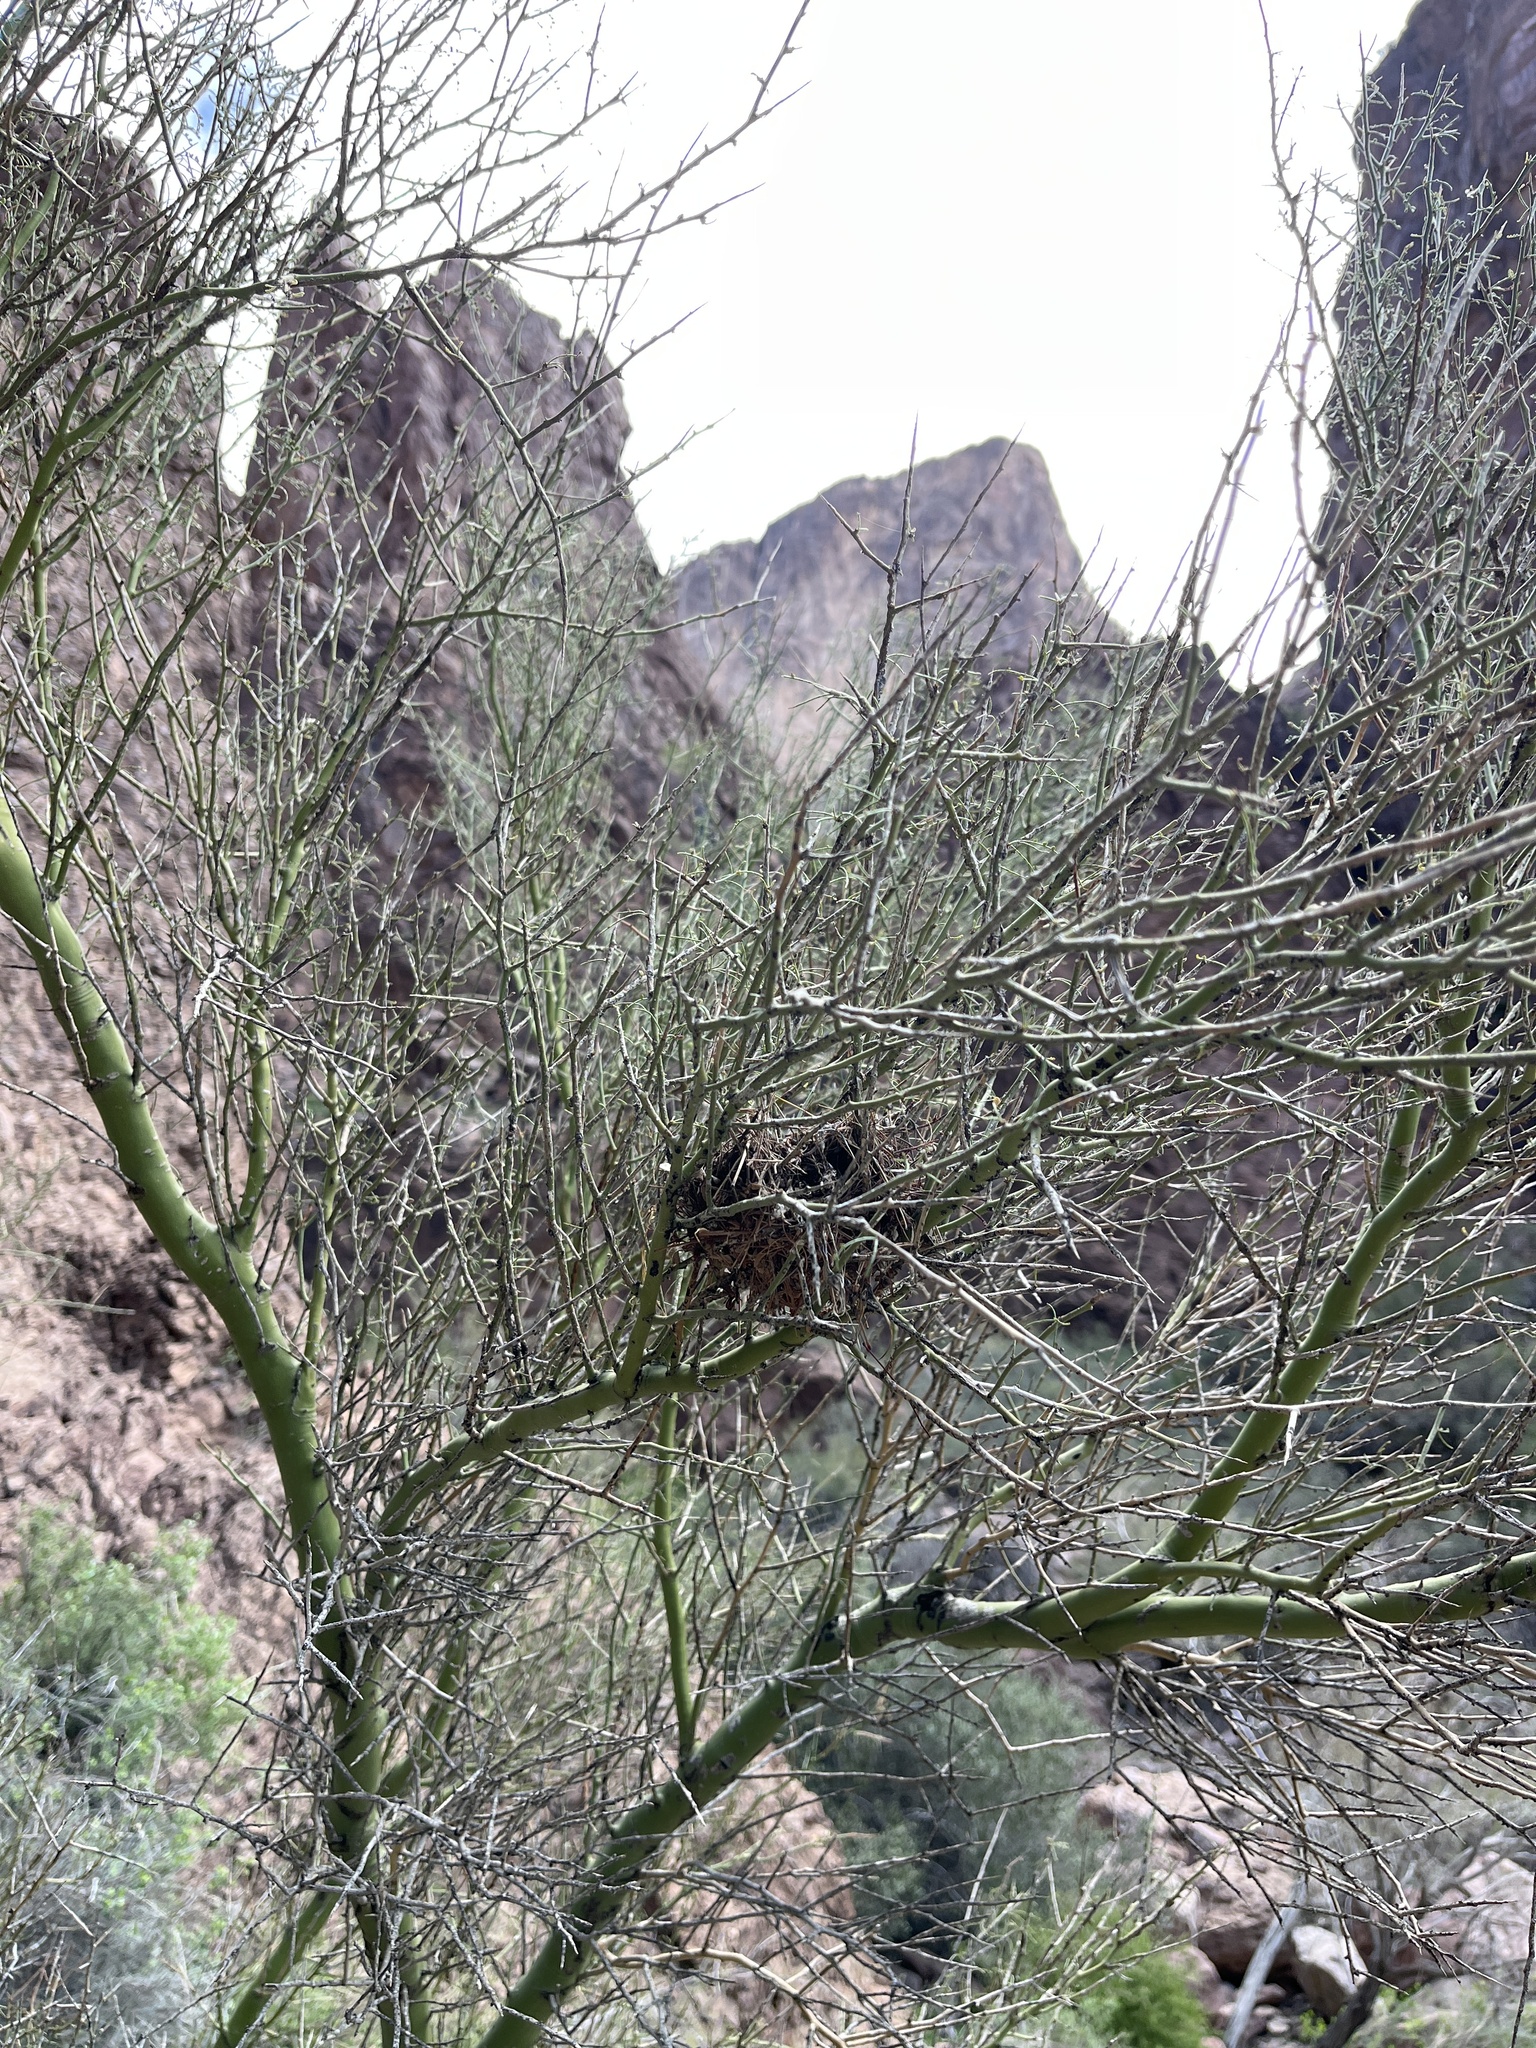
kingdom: Animalia
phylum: Chordata
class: Aves
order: Passeriformes
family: Remizidae
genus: Auriparus
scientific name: Auriparus flaviceps
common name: Verdin
